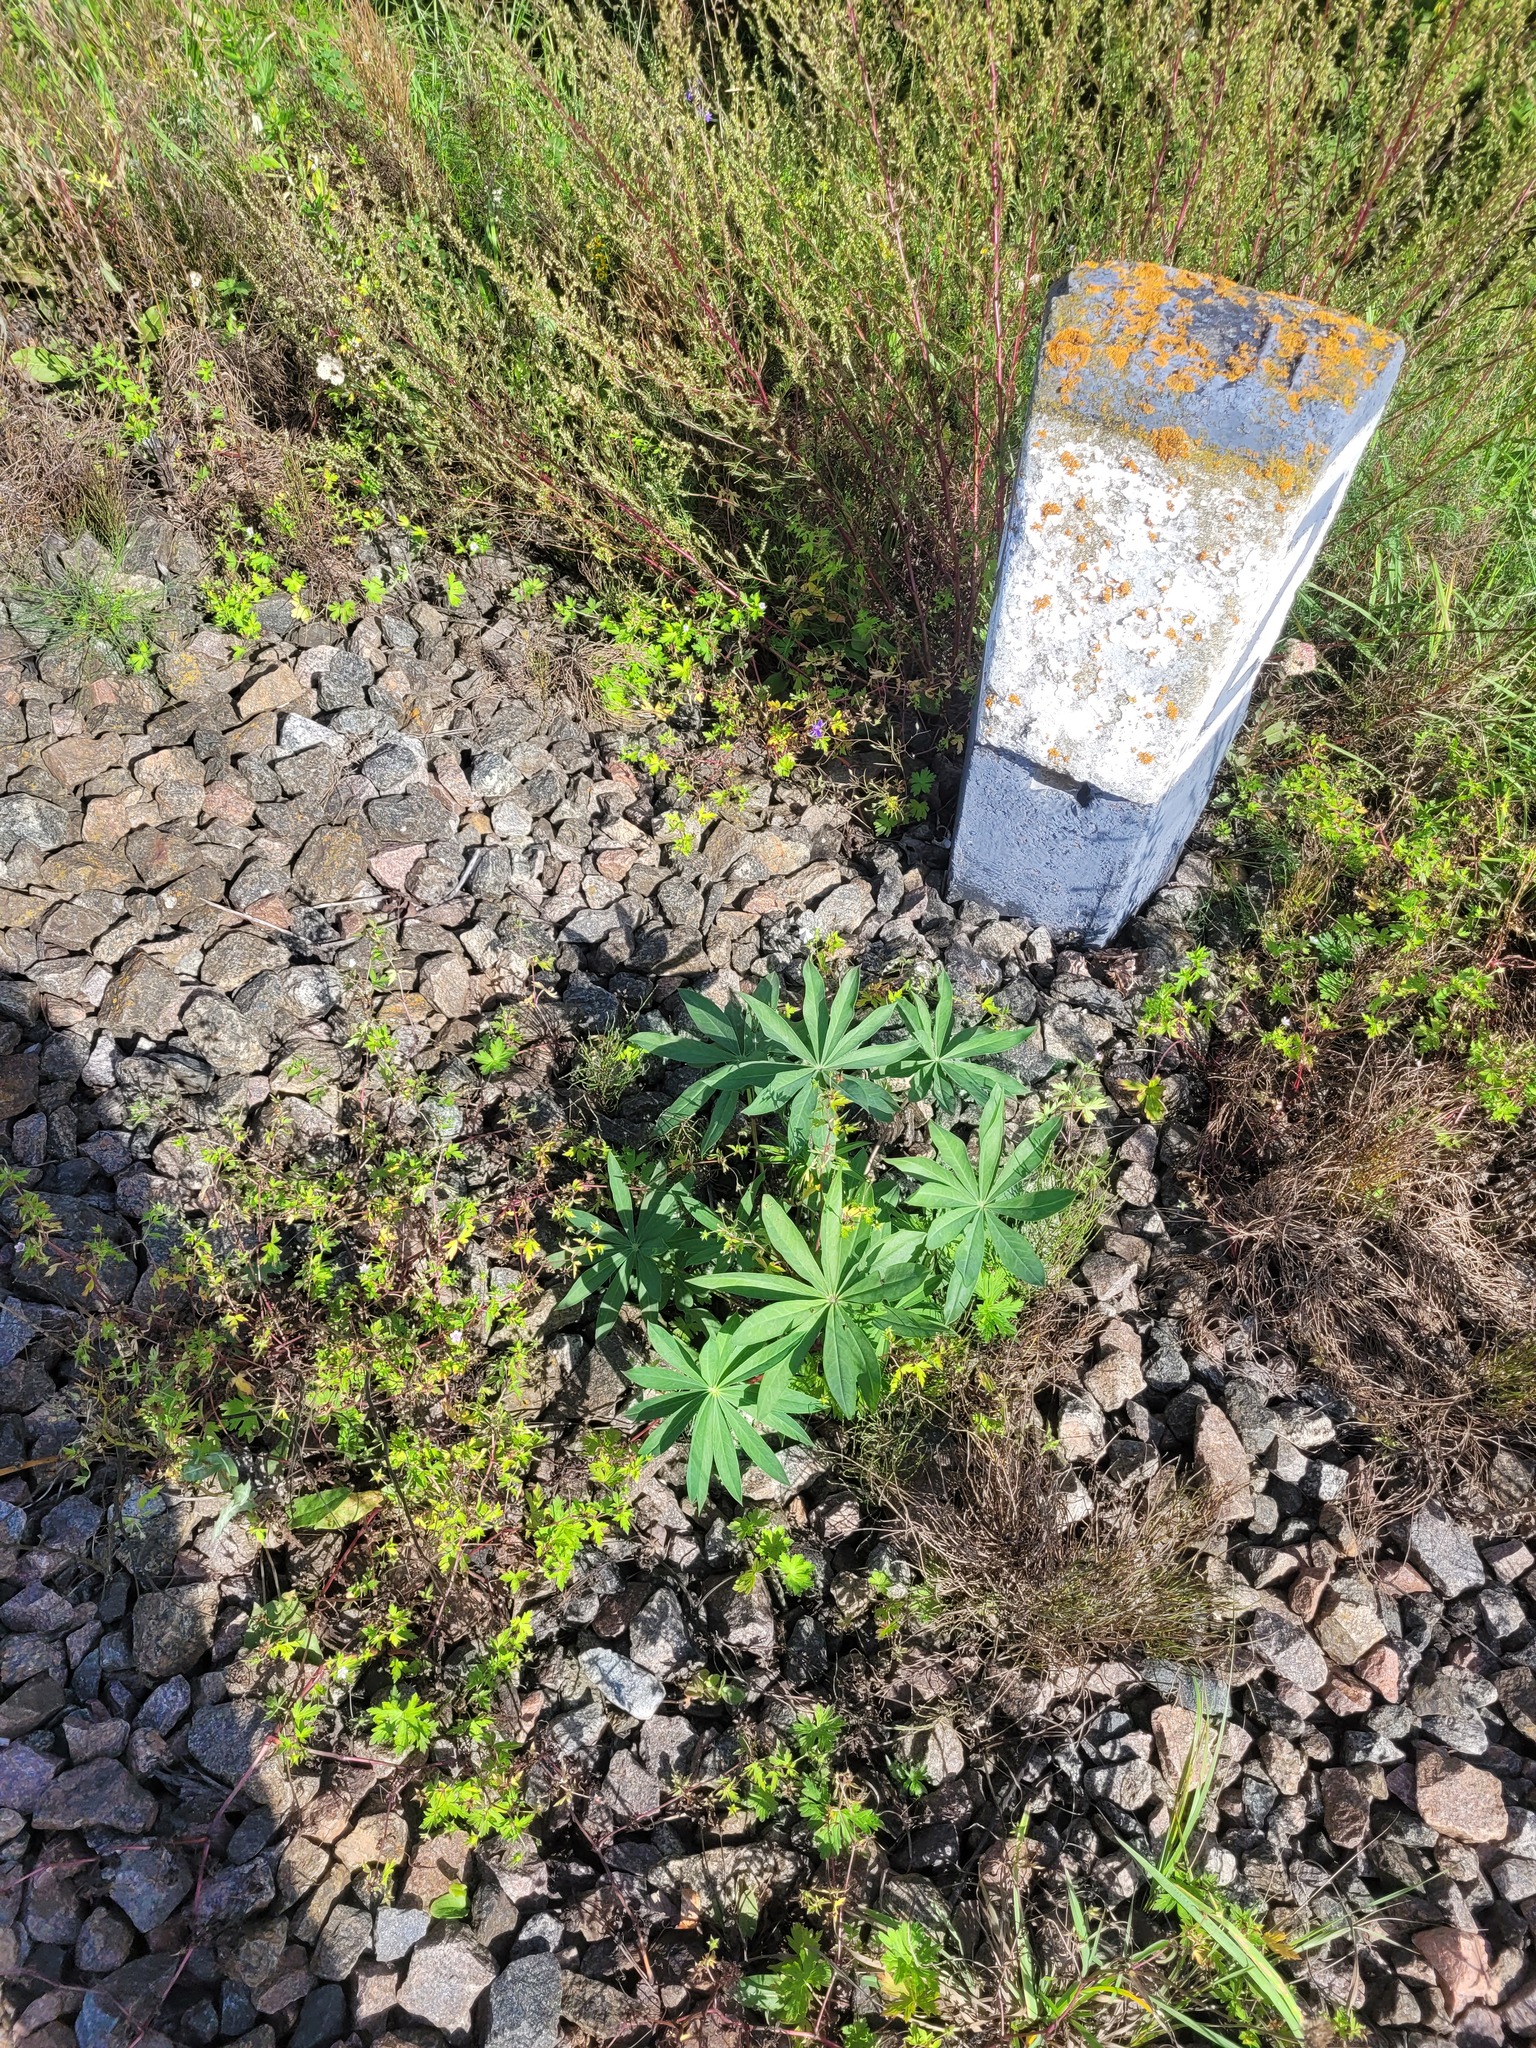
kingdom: Plantae
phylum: Tracheophyta
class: Magnoliopsida
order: Fabales
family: Fabaceae
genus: Lupinus
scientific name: Lupinus polyphyllus
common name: Garden lupin
